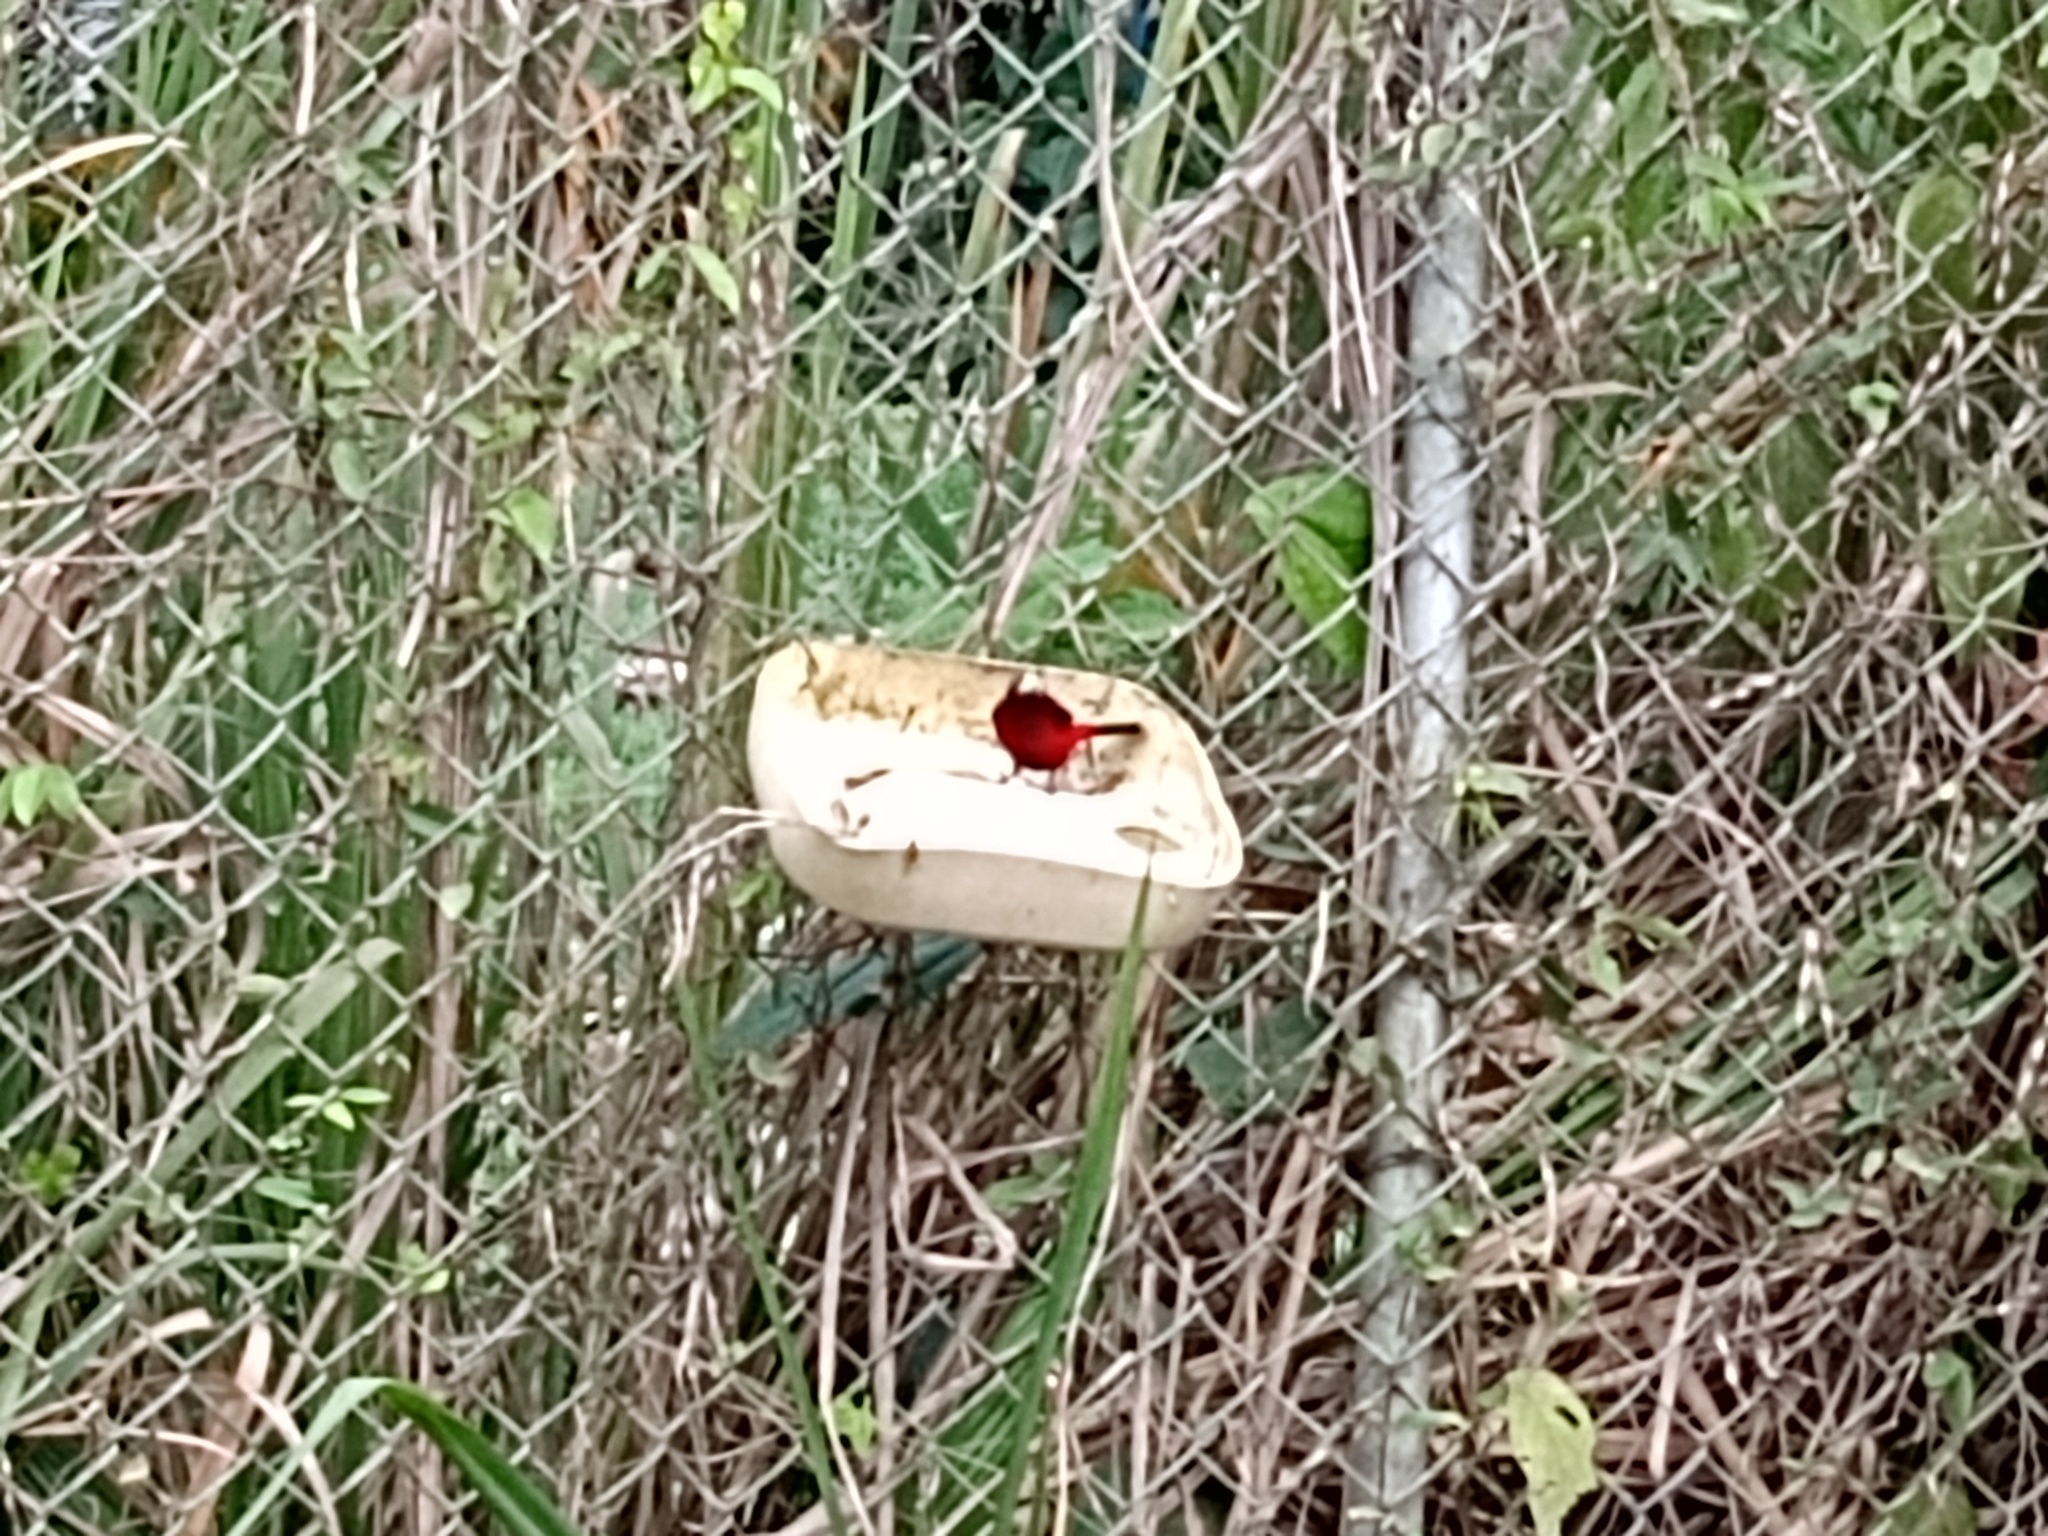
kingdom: Animalia
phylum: Chordata
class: Aves
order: Passeriformes
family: Thraupidae
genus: Ramphocelus
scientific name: Ramphocelus dimidiatus
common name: Crimson-backed tanager
